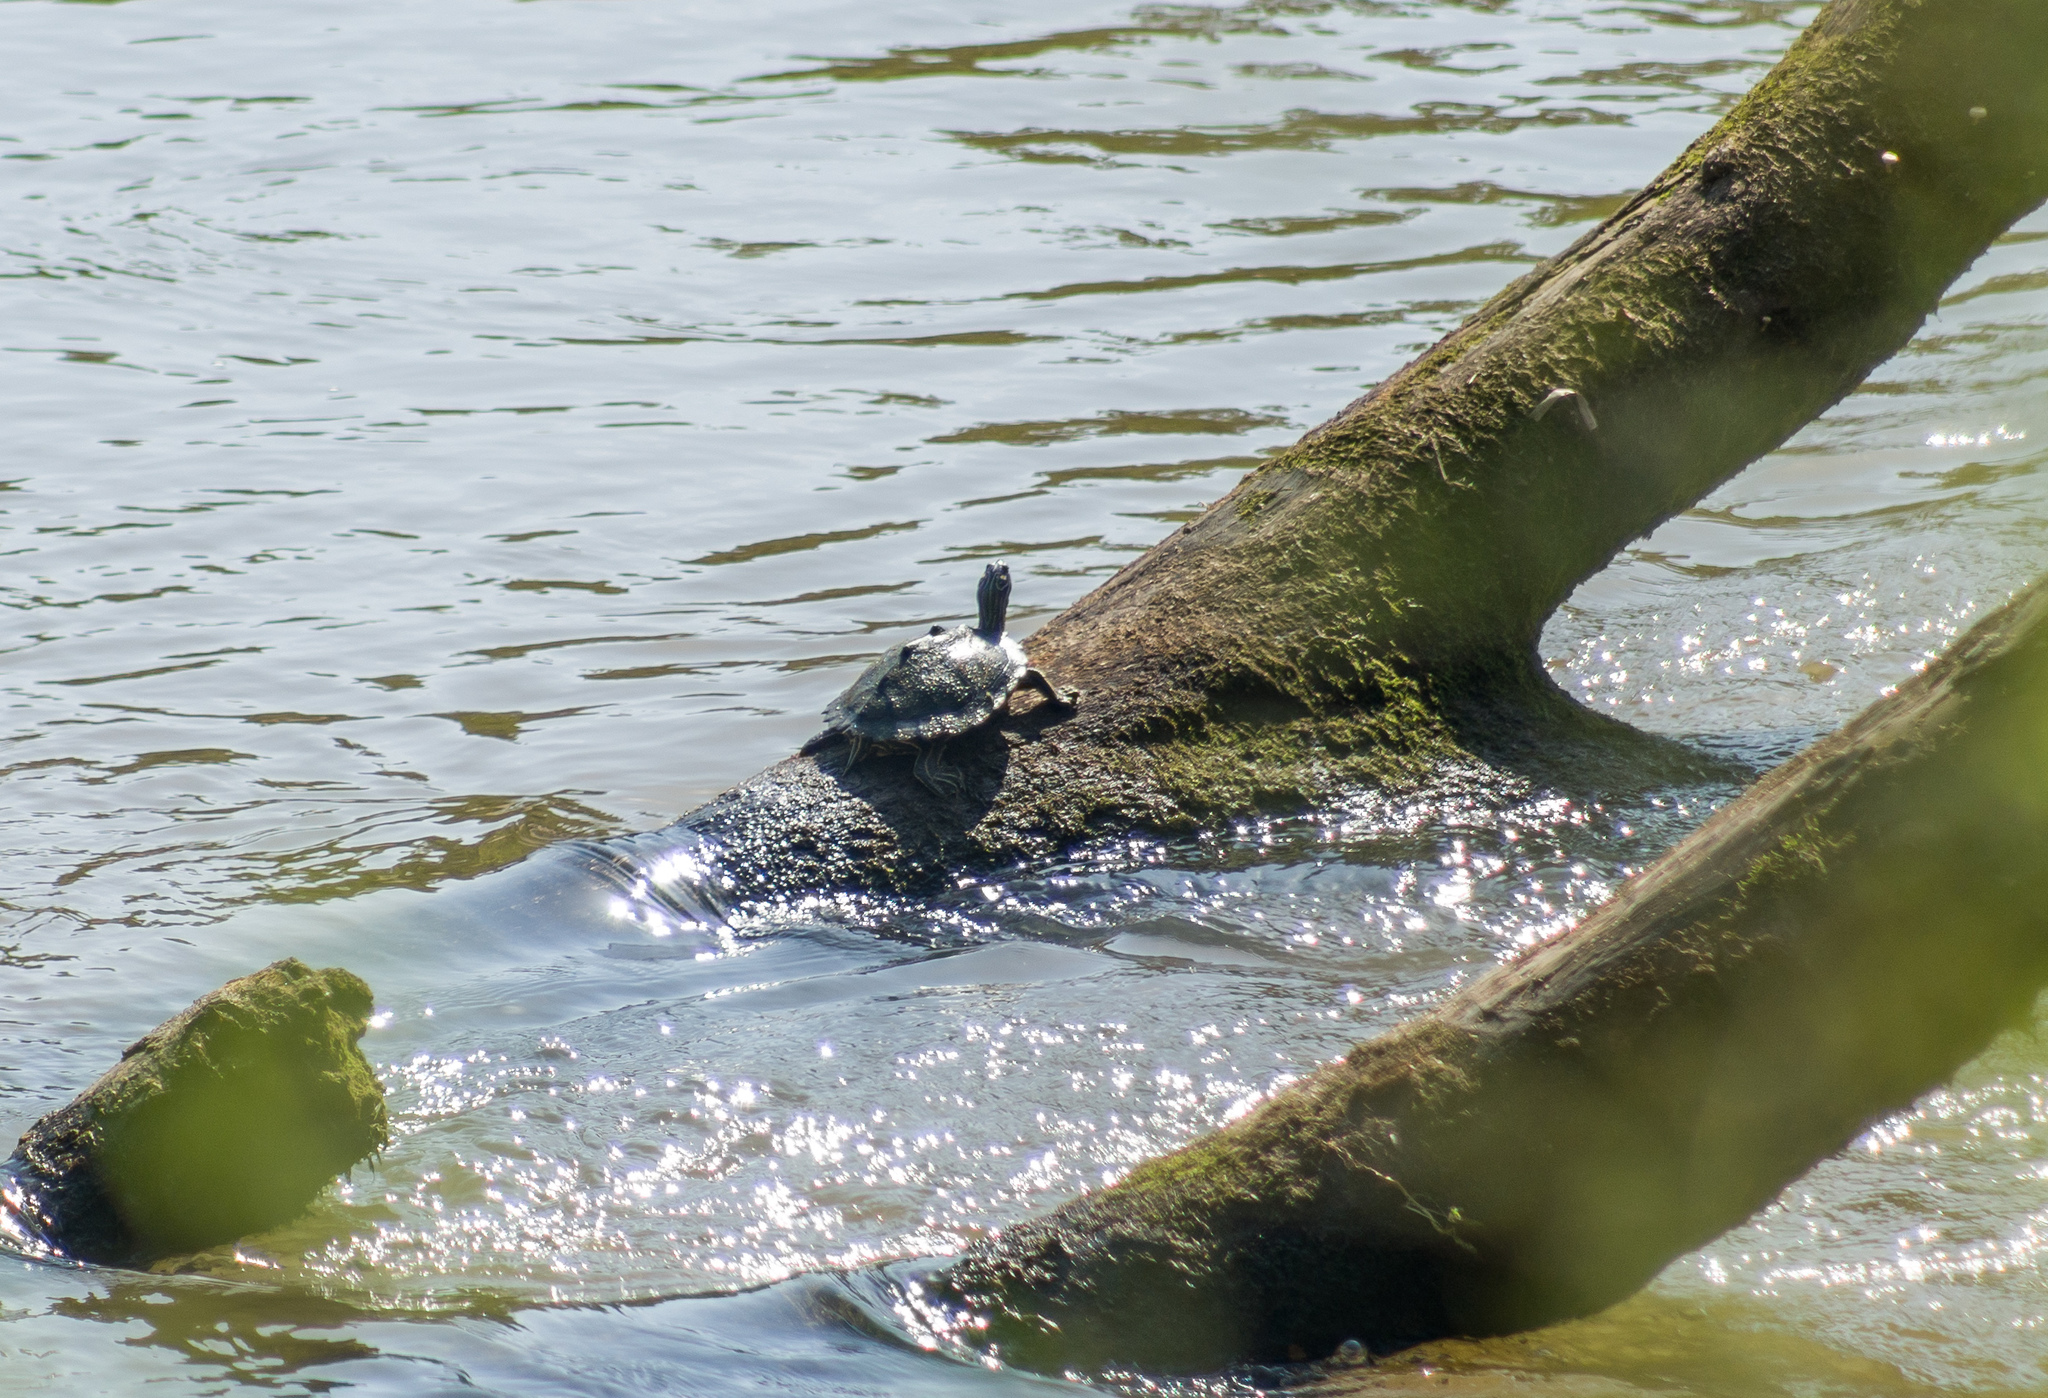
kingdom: Animalia
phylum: Chordata
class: Testudines
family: Emydidae
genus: Graptemys
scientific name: Graptemys oculifera
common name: Ringed map turtle
